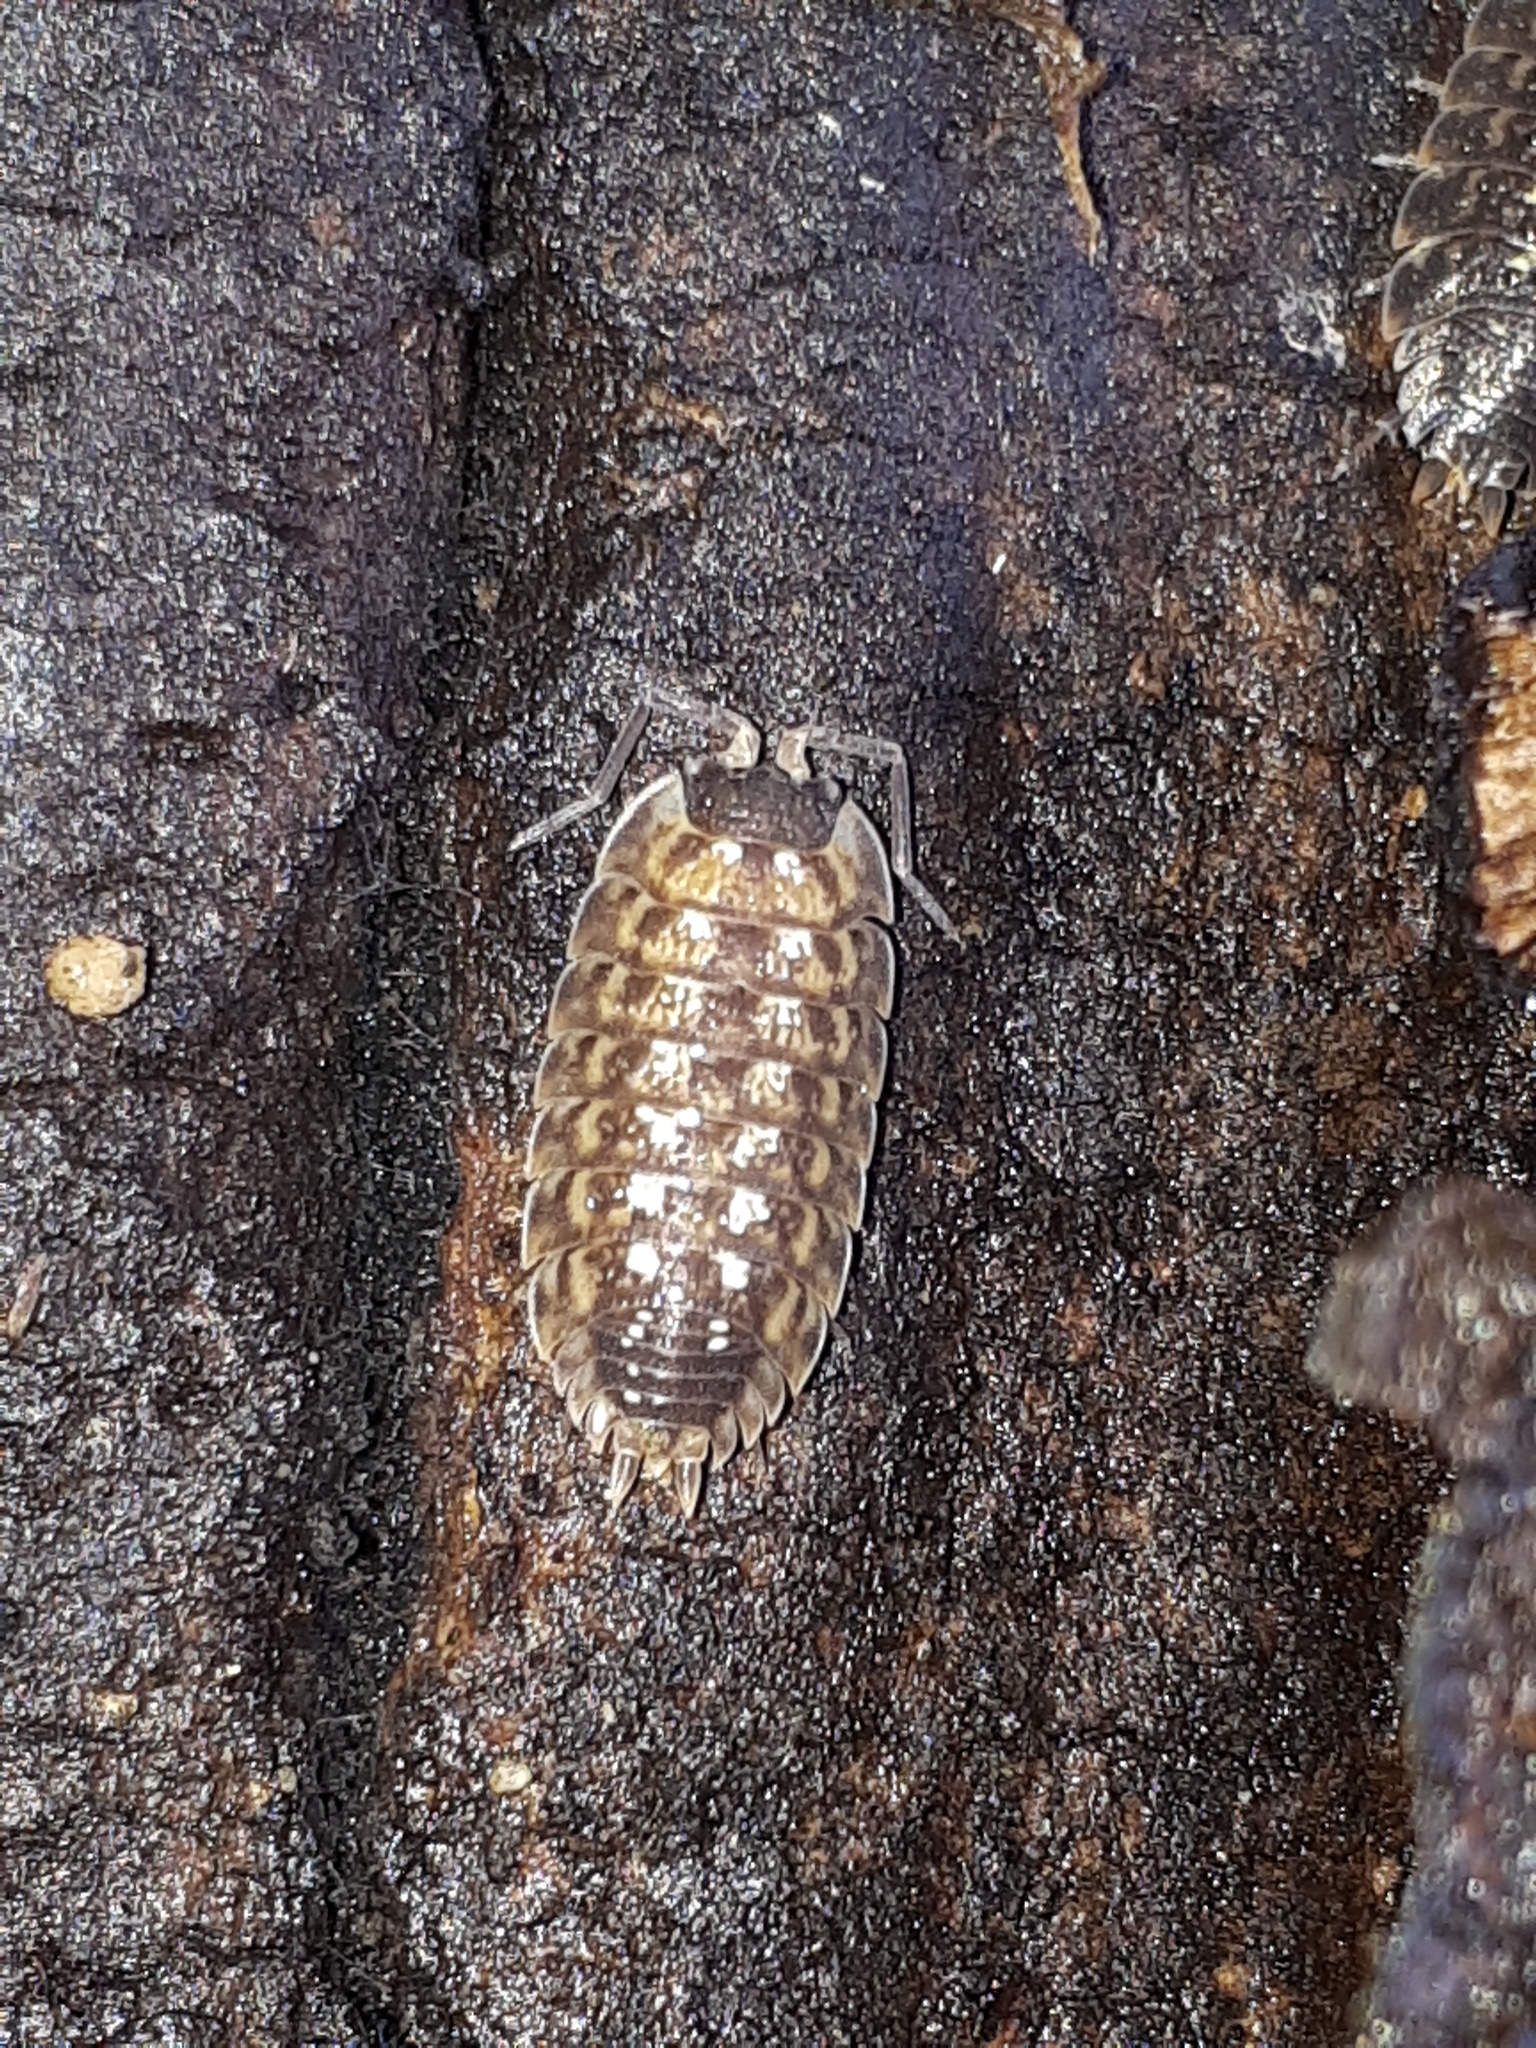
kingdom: Animalia
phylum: Arthropoda
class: Malacostraca
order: Isopoda
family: Porcellionidae
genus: Porcellio
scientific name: Porcellio spinicornis
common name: Painted woodlouse
